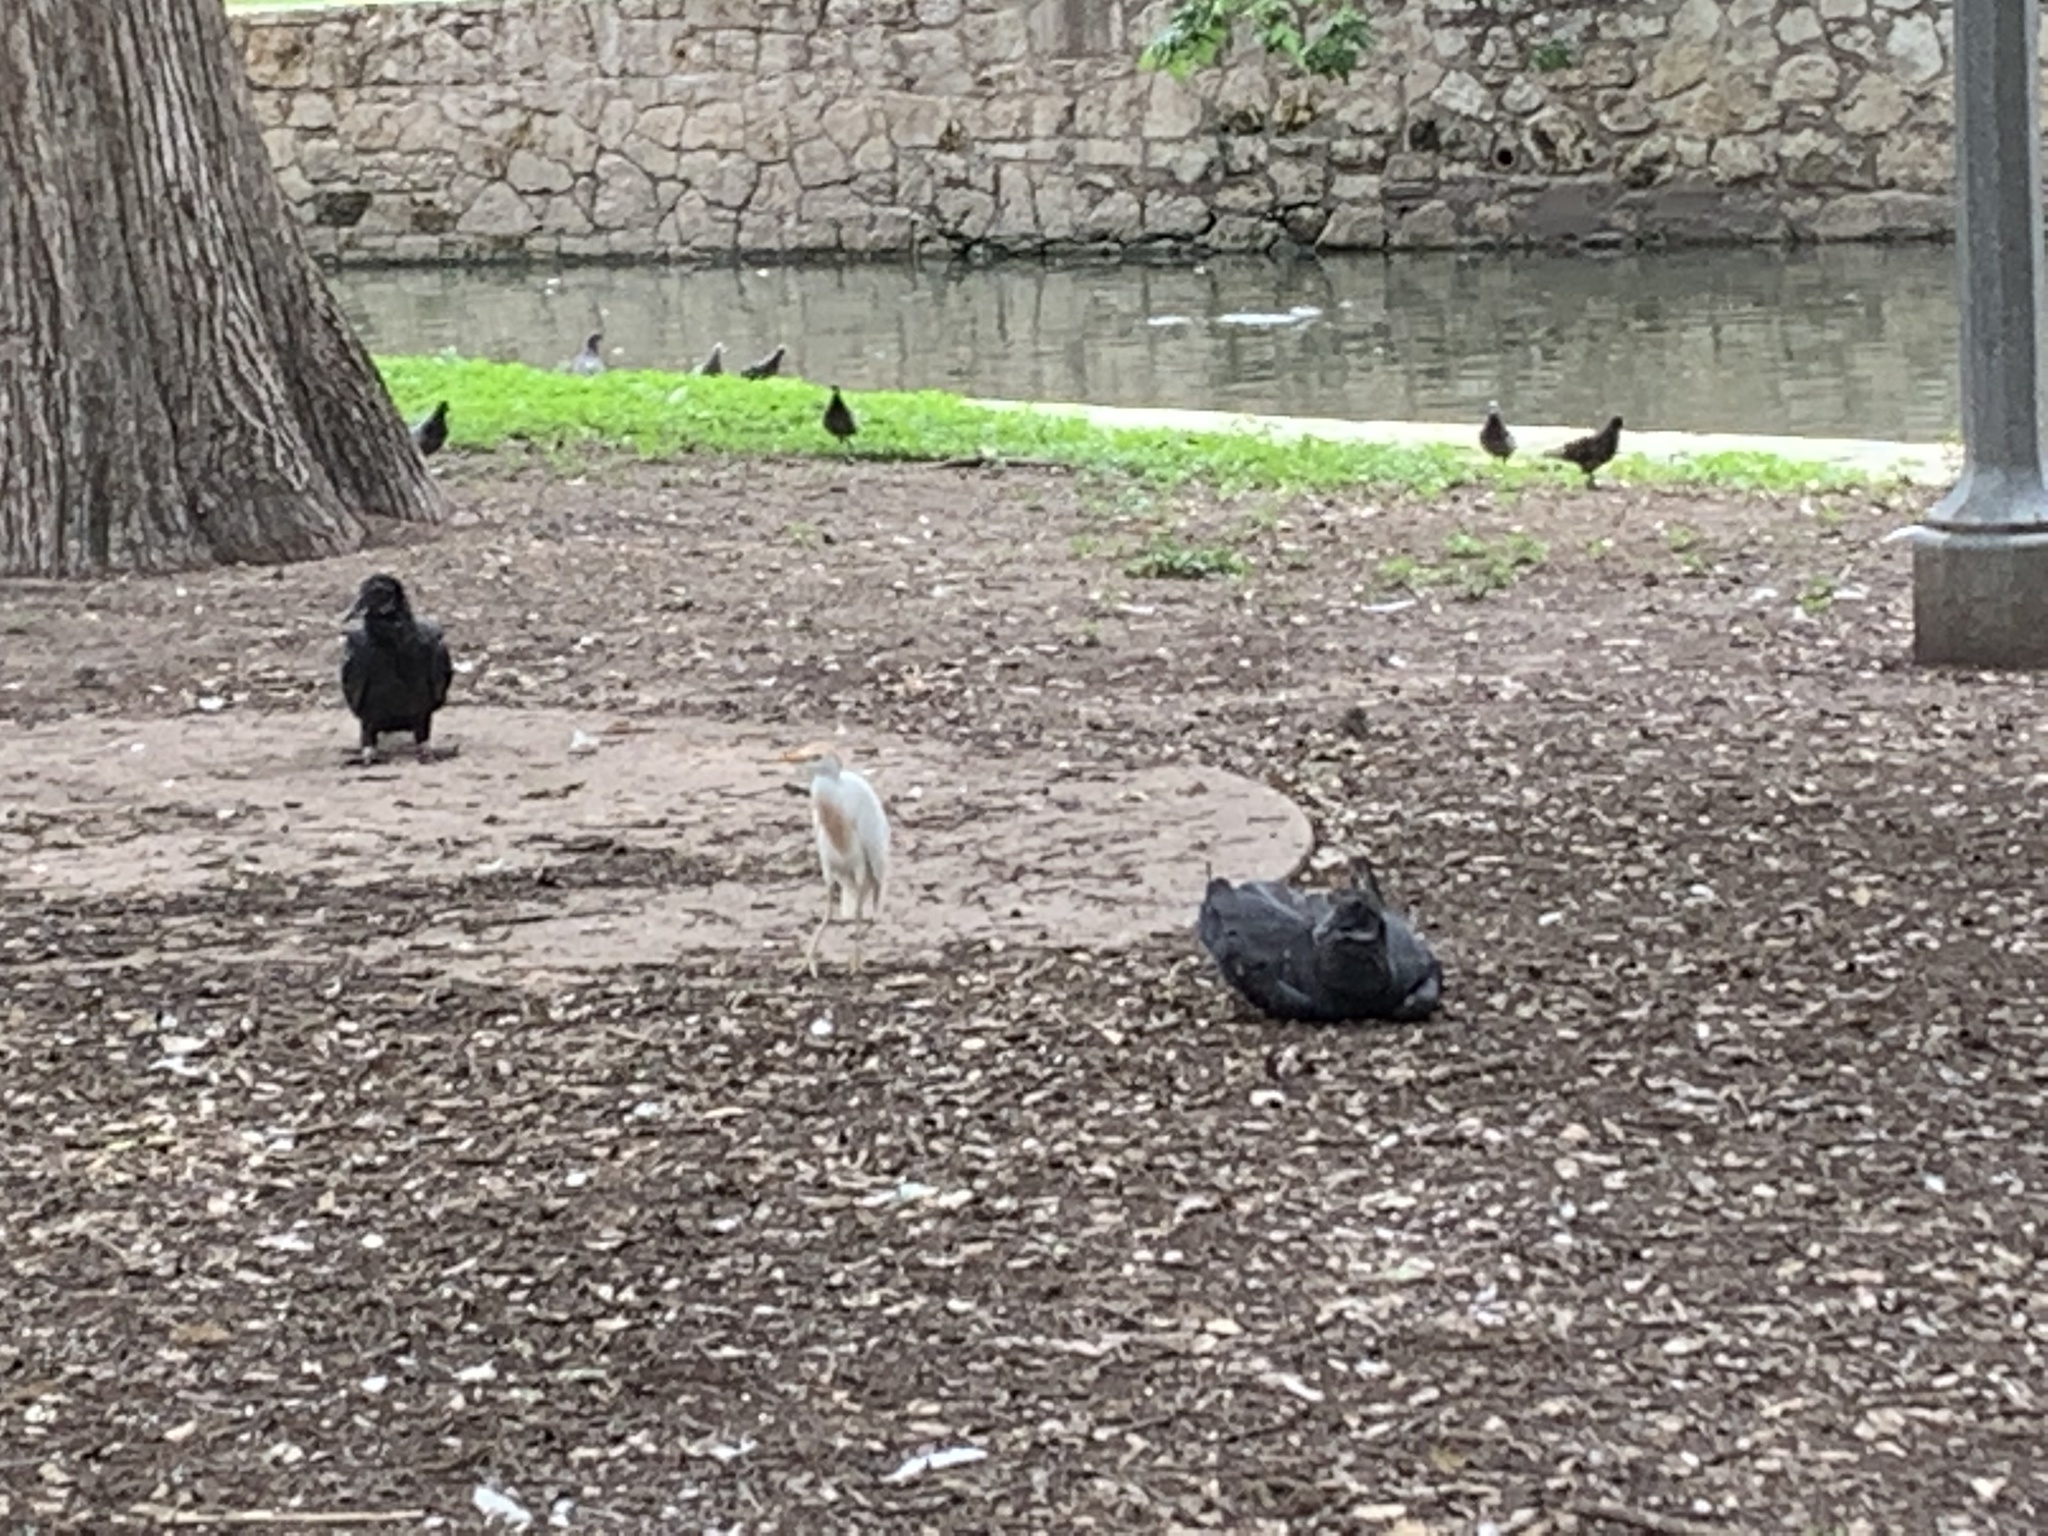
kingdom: Animalia
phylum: Chordata
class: Aves
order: Accipitriformes
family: Cathartidae
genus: Coragyps
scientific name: Coragyps atratus
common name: Black vulture
